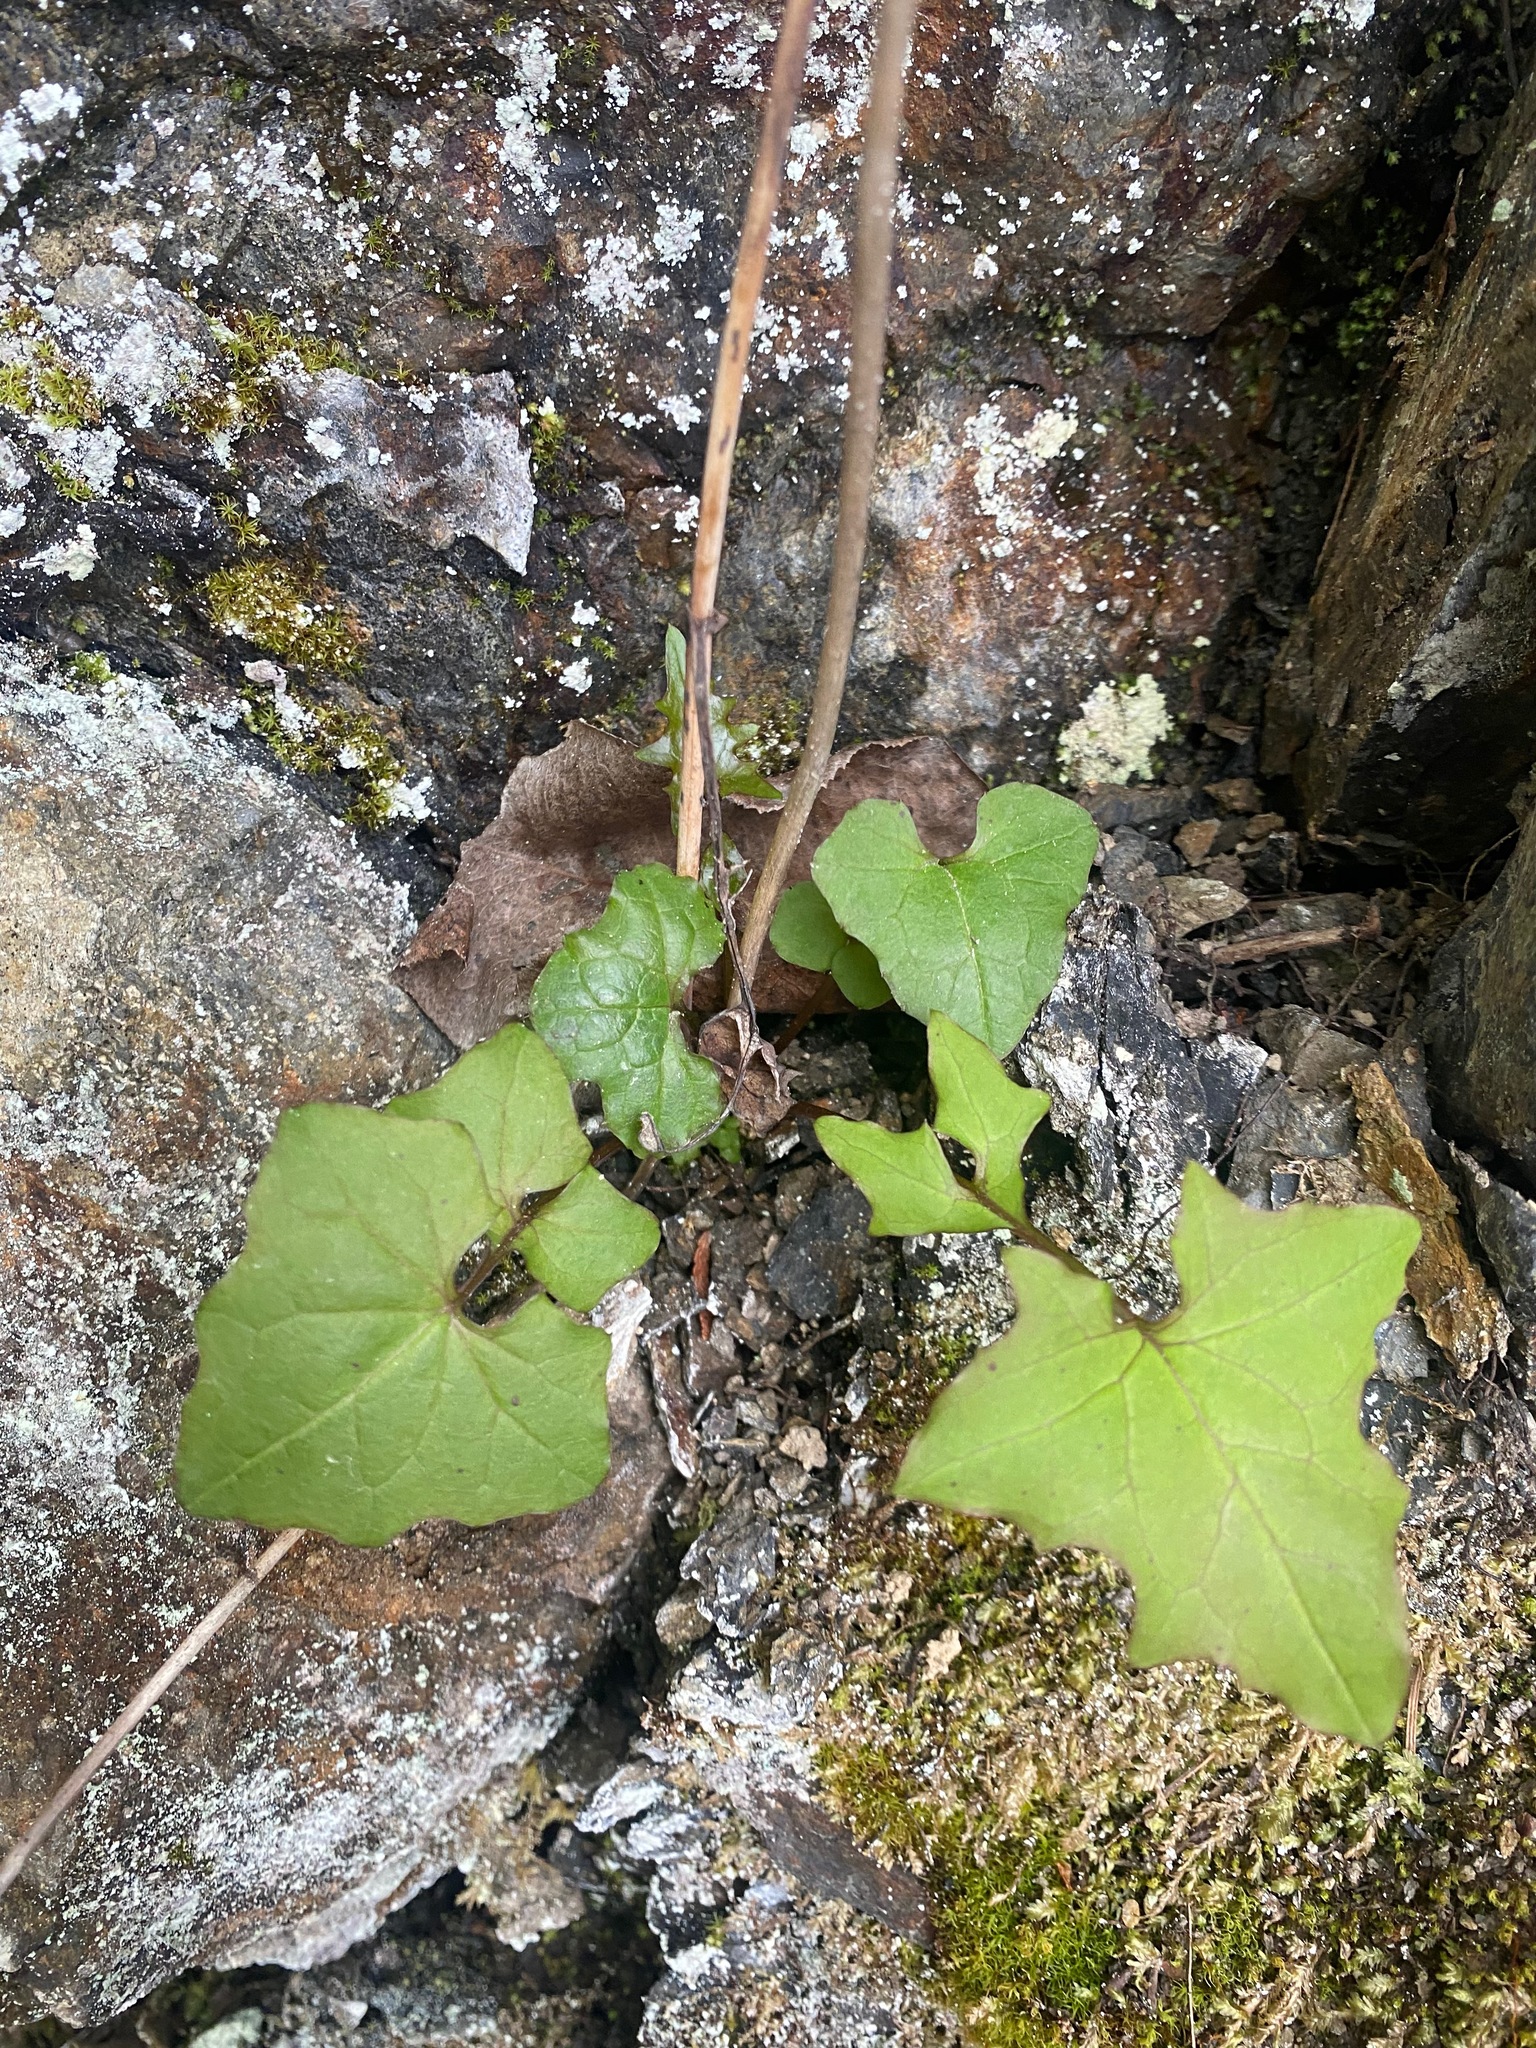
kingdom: Plantae
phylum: Tracheophyta
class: Magnoliopsida
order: Asterales
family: Asteraceae
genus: Mycelis
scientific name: Mycelis muralis
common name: Wall lettuce
